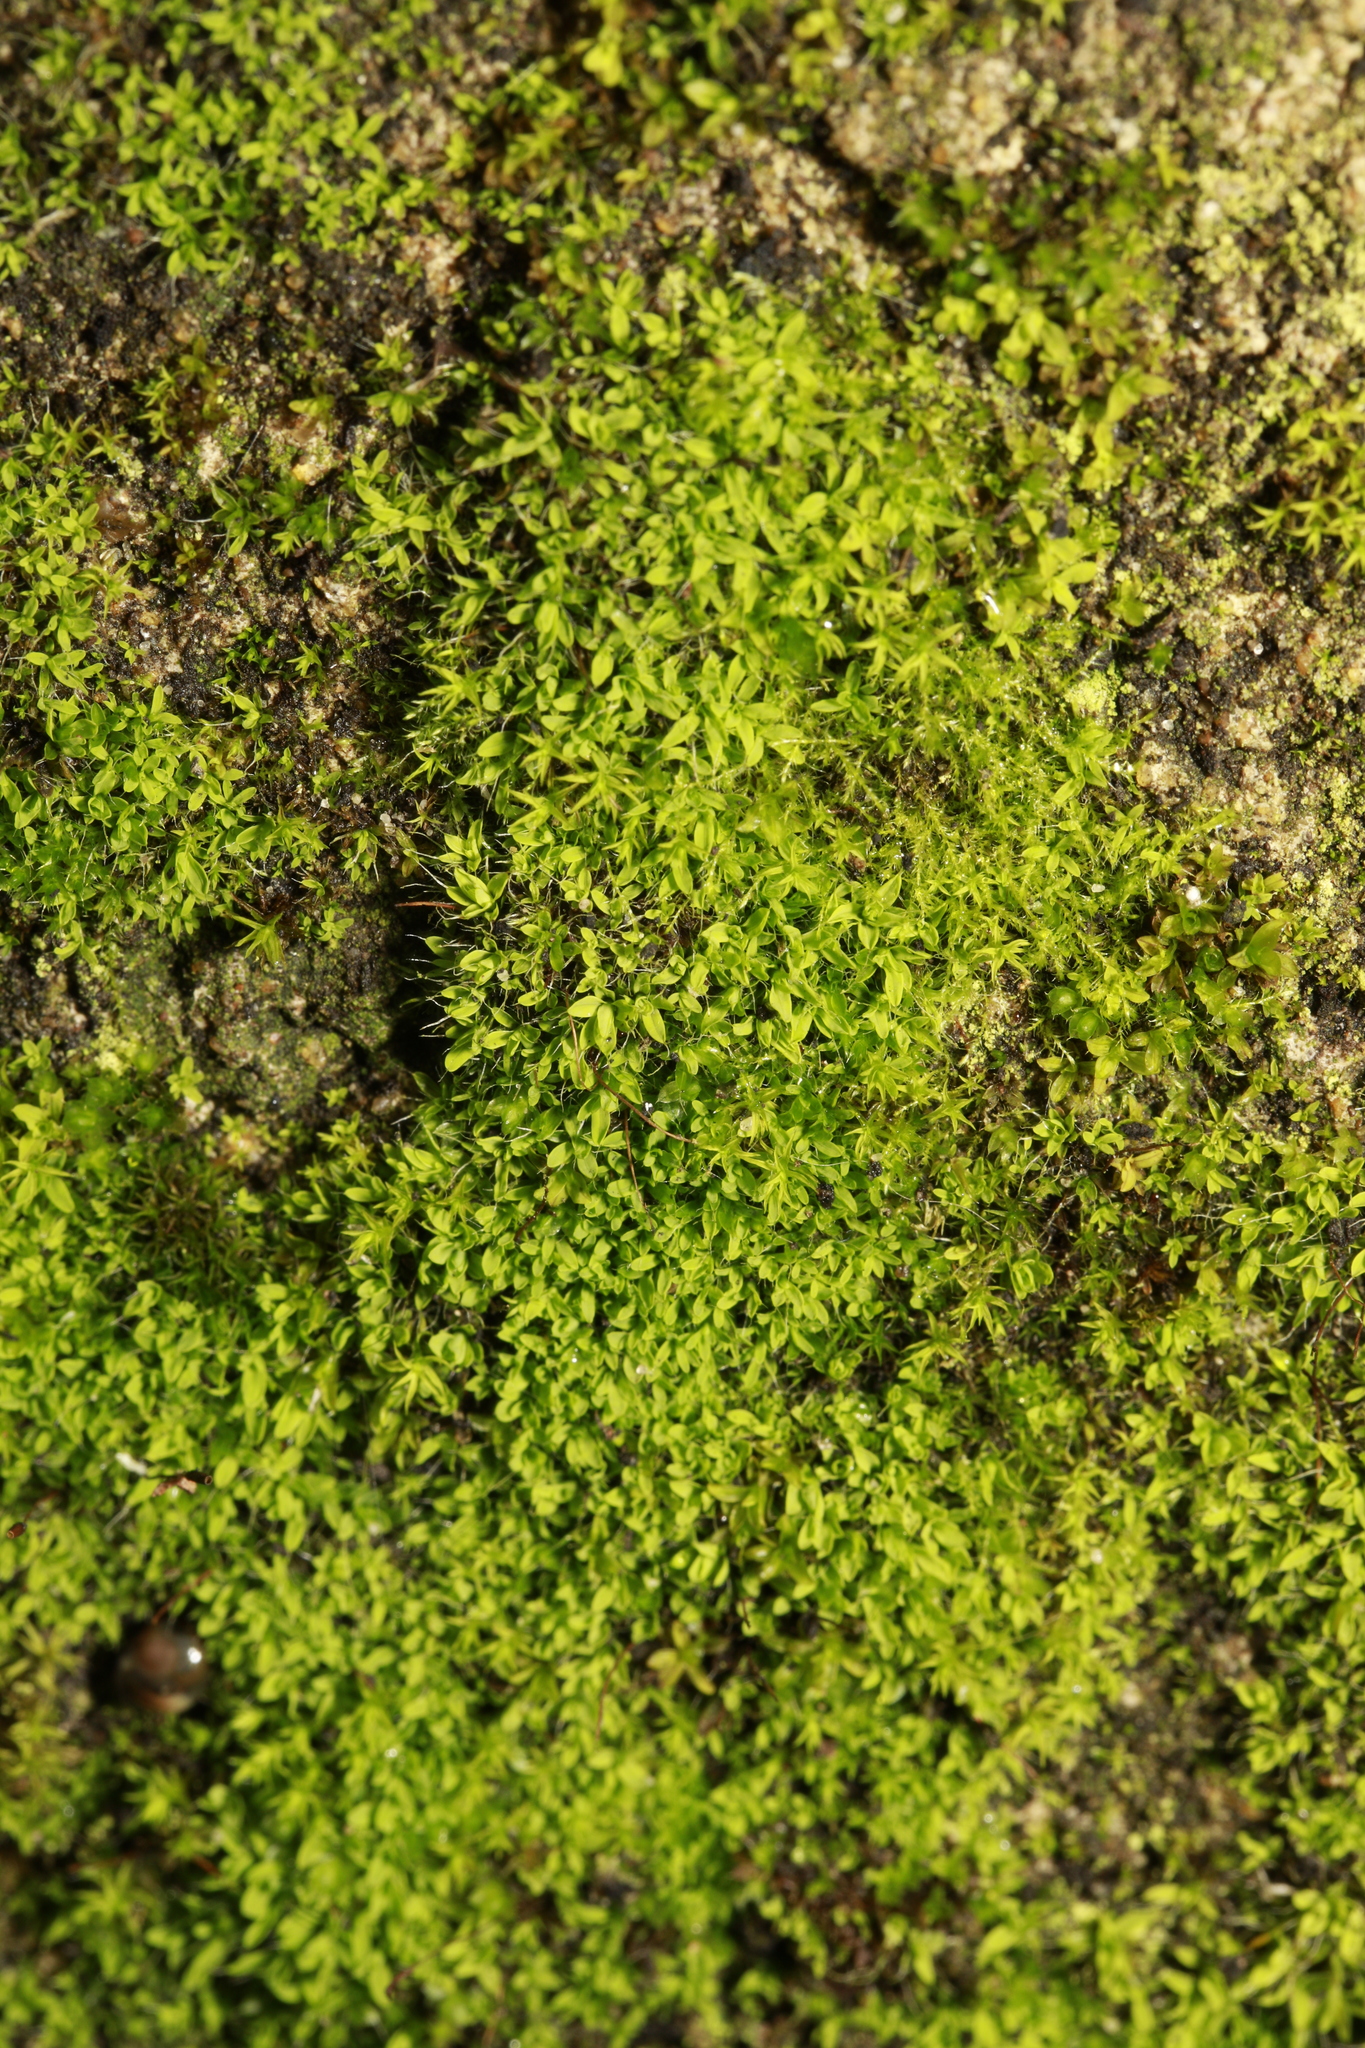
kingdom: Plantae
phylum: Bryophyta
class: Bryopsida
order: Pottiales
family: Pottiaceae
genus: Tortula
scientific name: Tortula muralis
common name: Wall screw-moss
